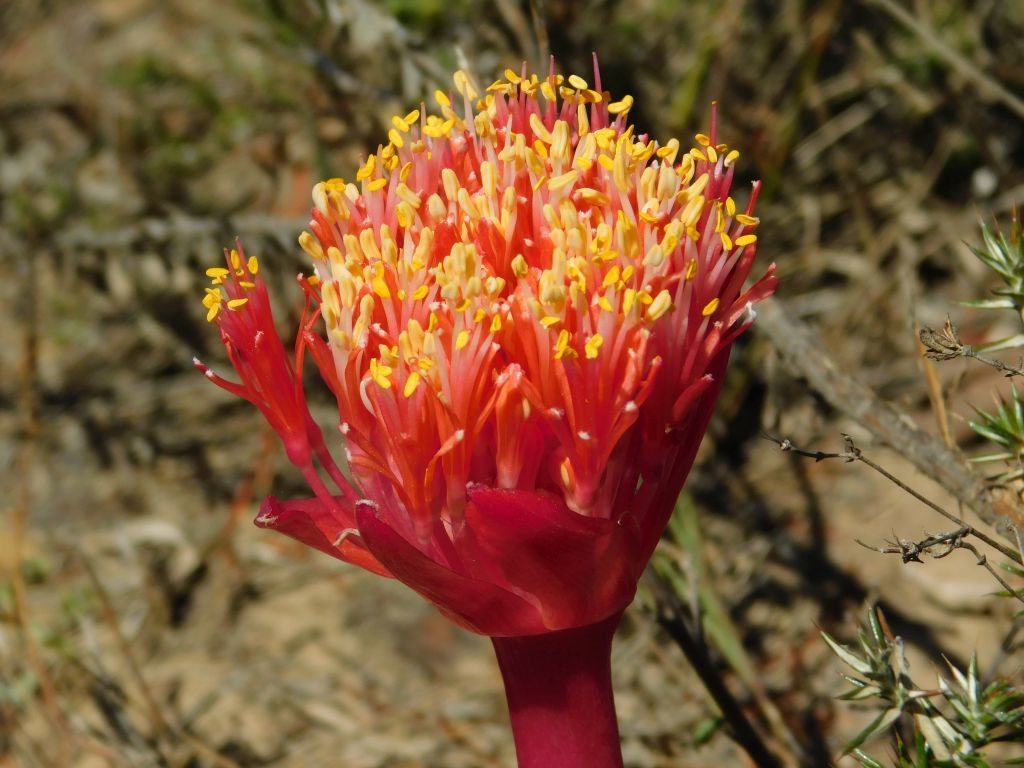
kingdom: Plantae
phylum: Tracheophyta
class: Liliopsida
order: Asparagales
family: Amaryllidaceae
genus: Haemanthus
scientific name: Haemanthus sanguineus
